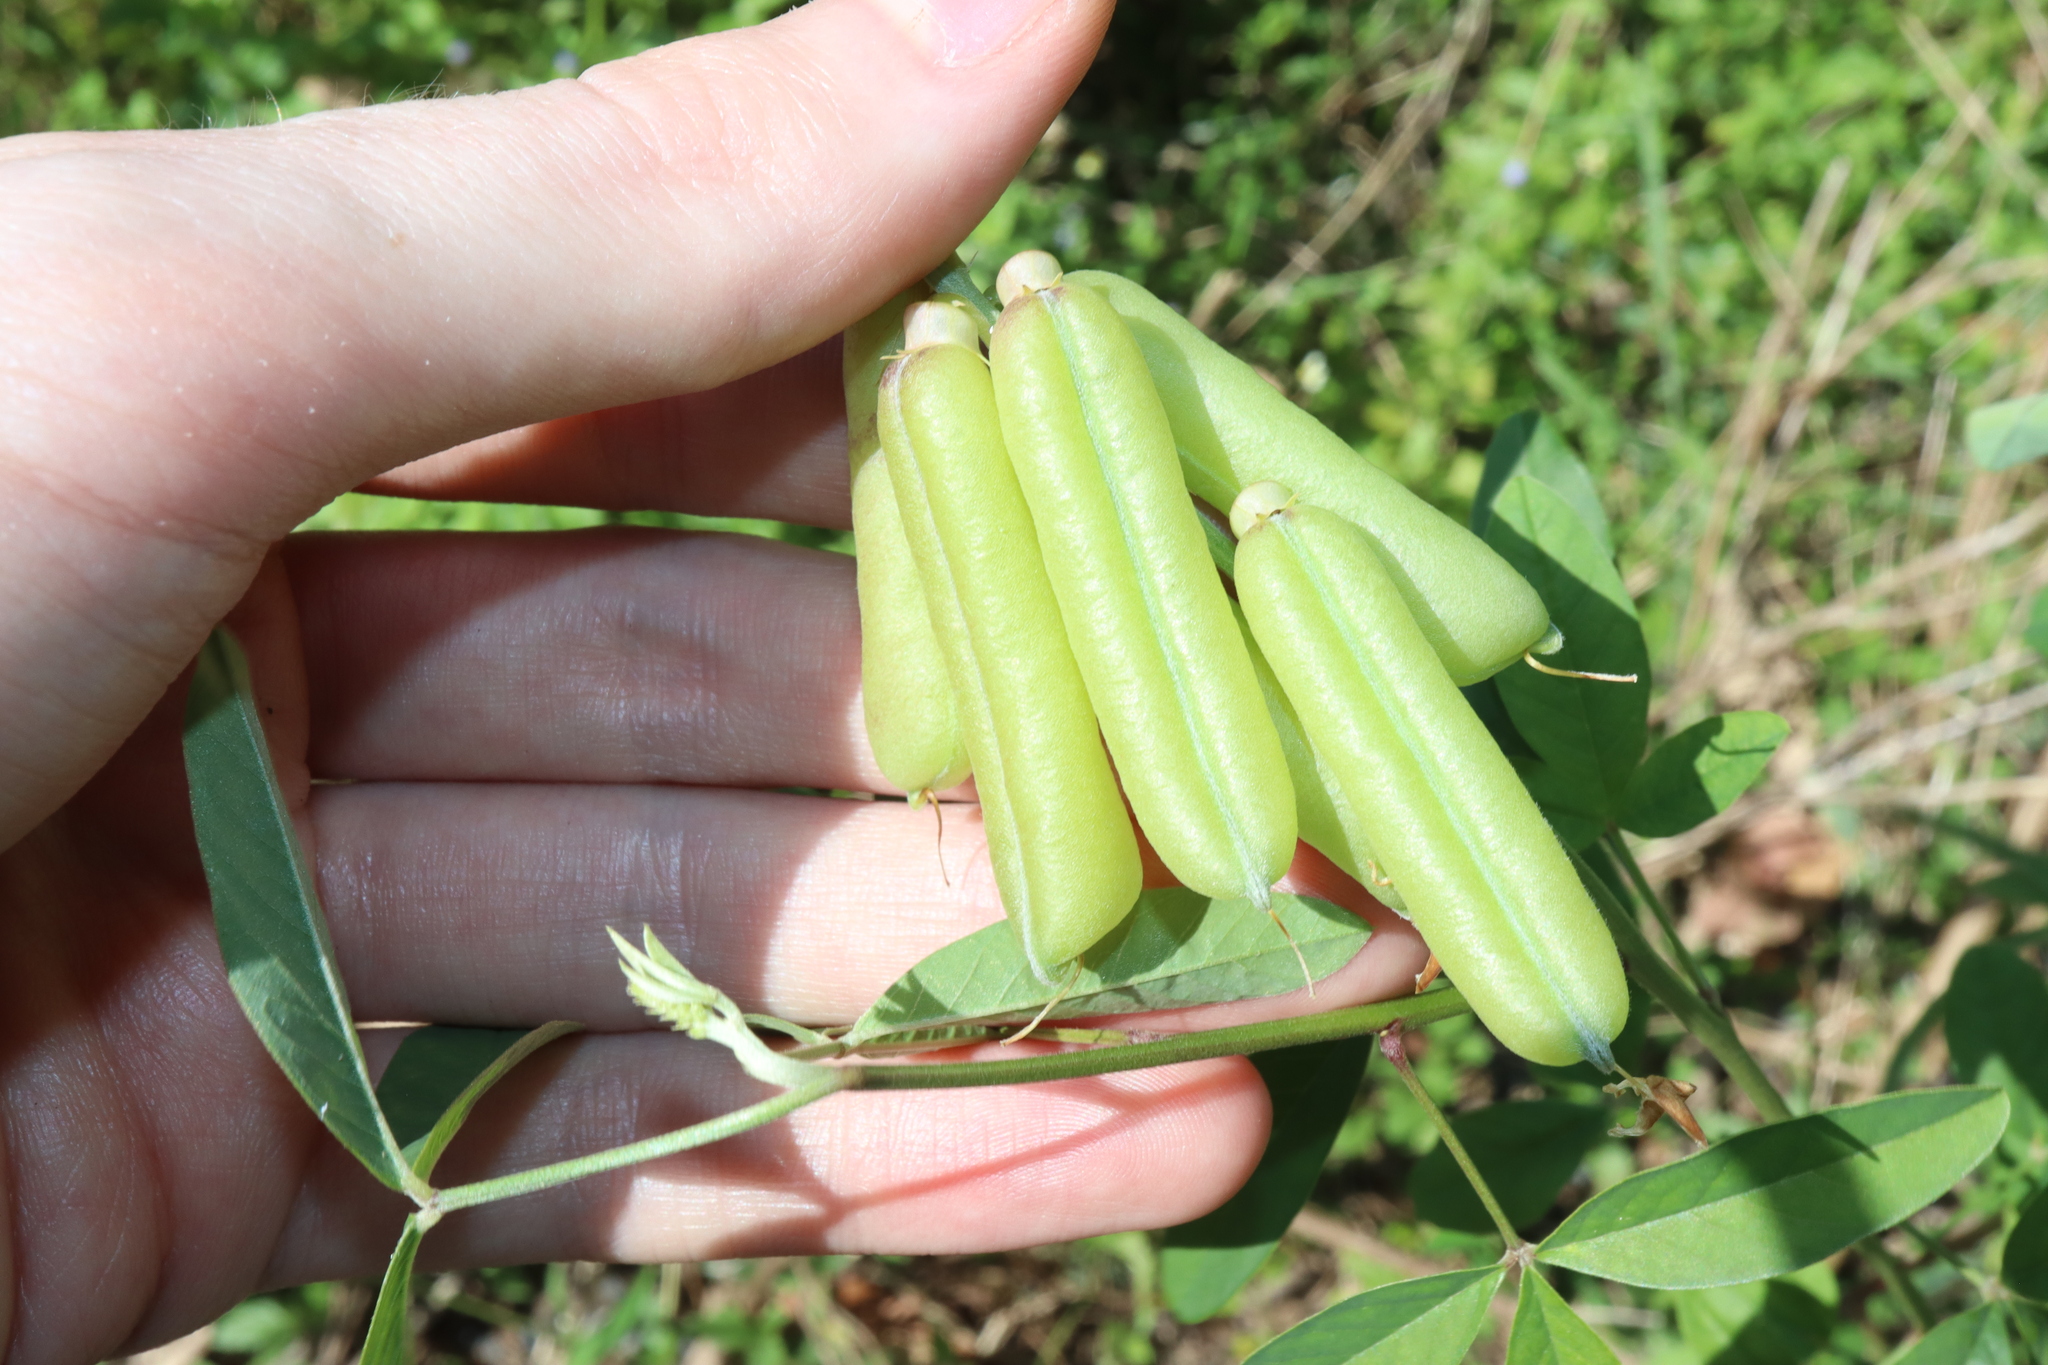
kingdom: Plantae
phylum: Tracheophyta
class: Magnoliopsida
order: Fabales
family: Fabaceae
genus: Crotalaria
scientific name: Crotalaria trichotoma
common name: West indian rattlebox
